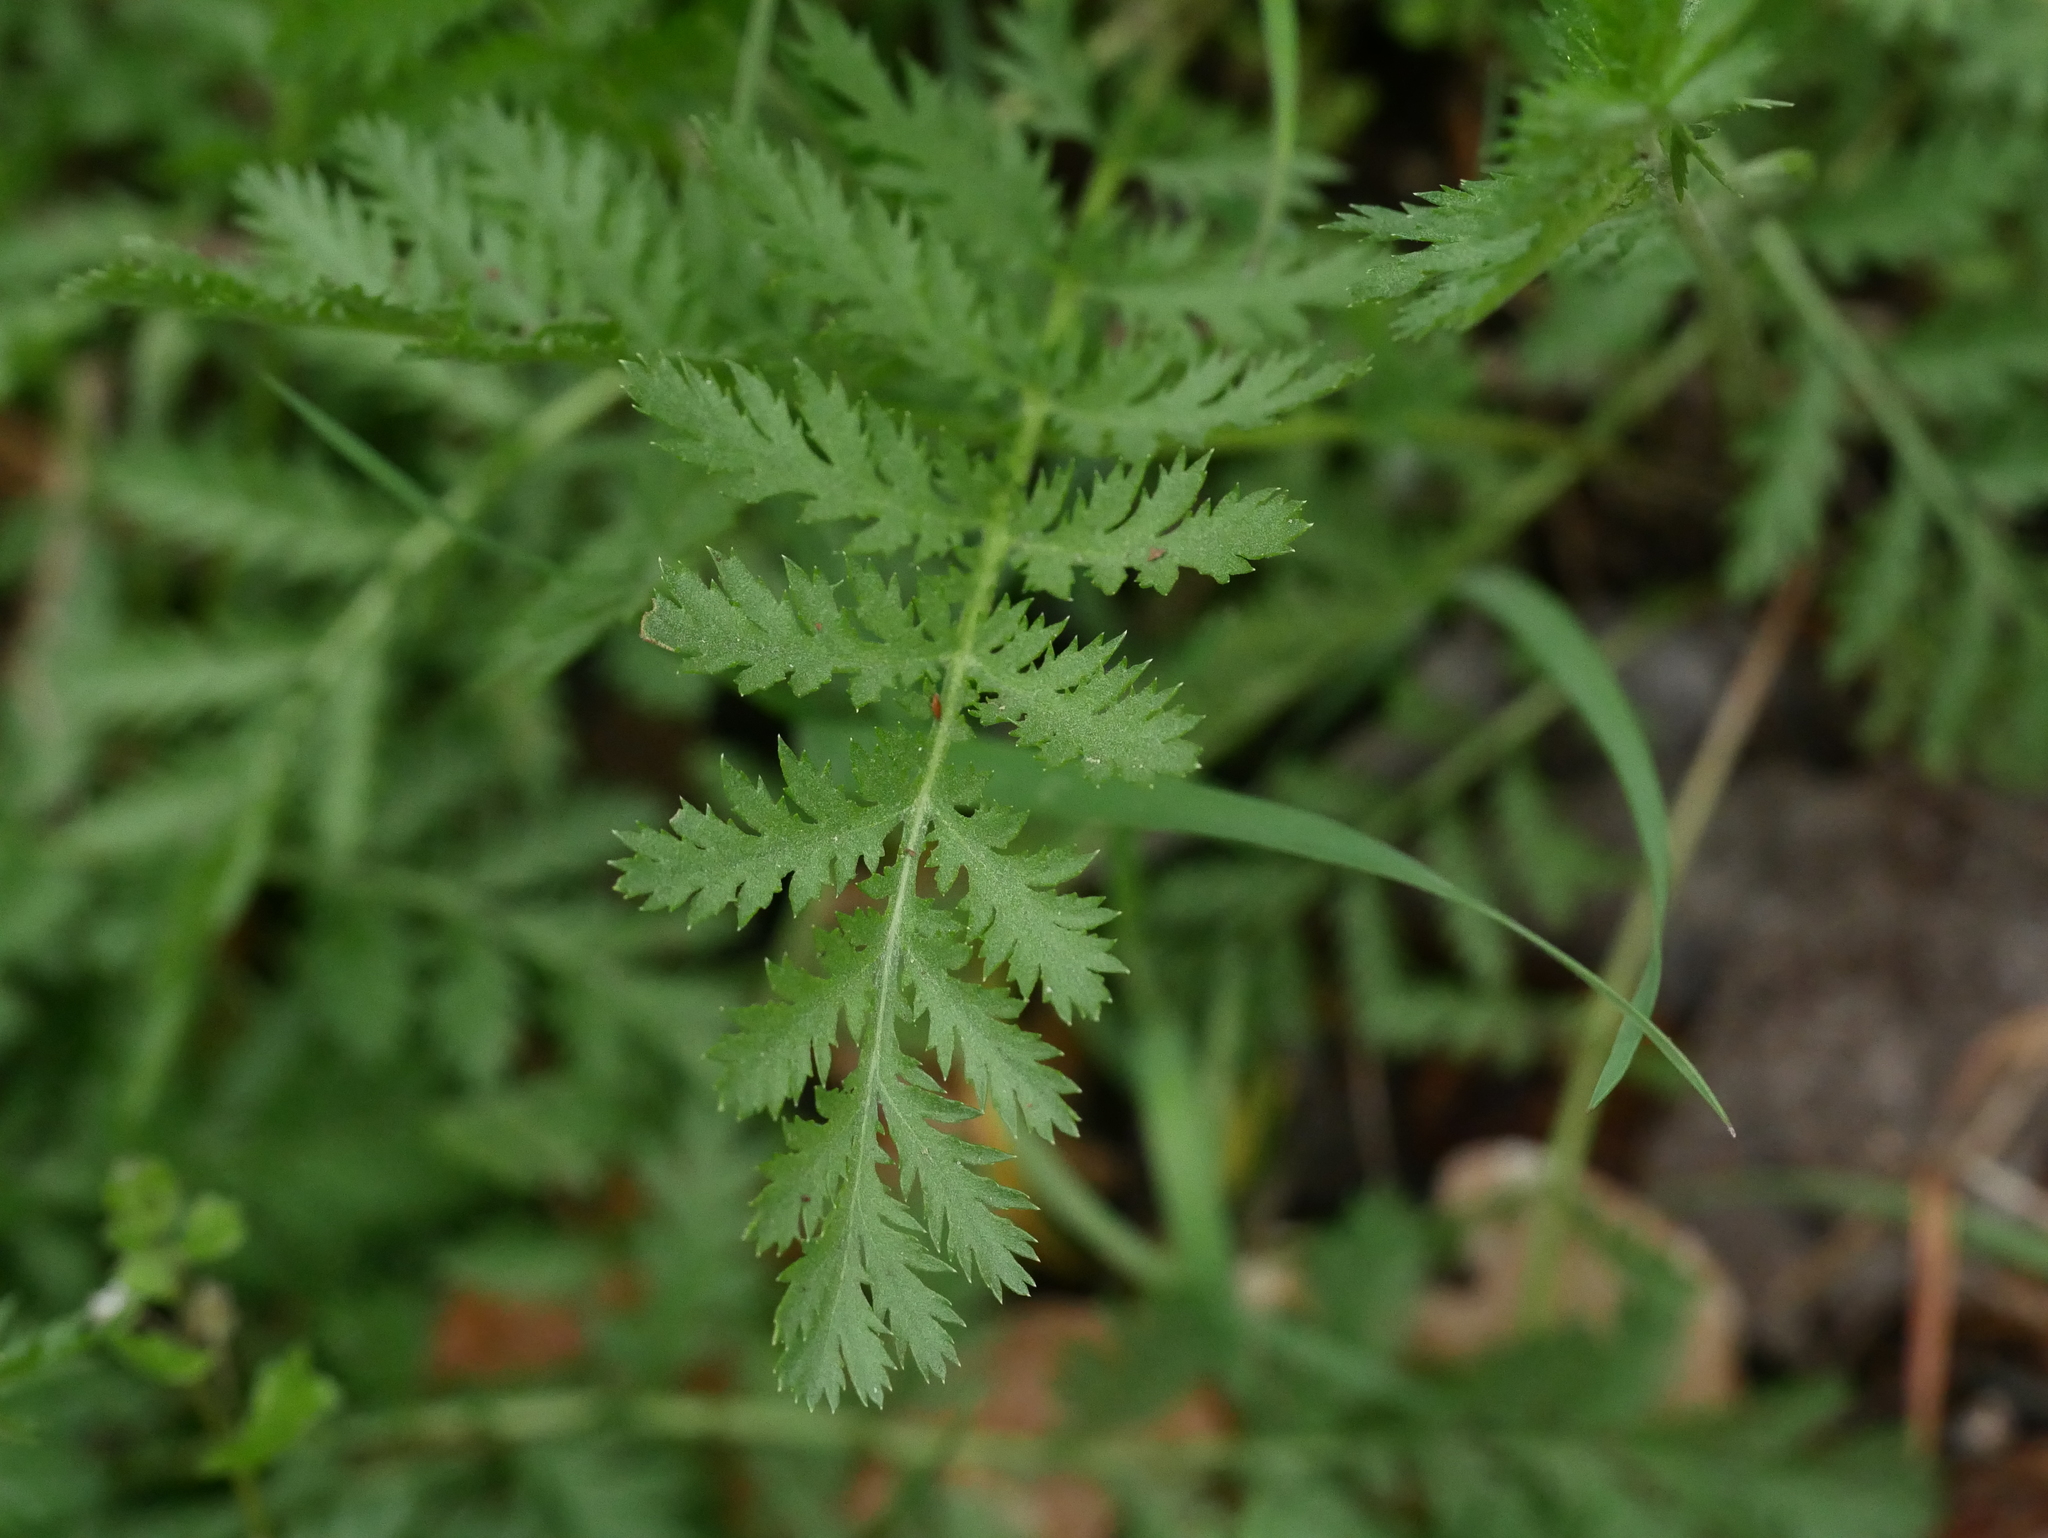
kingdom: Plantae
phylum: Tracheophyta
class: Magnoliopsida
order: Asterales
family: Asteraceae
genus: Tanacetum
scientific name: Tanacetum vulgare
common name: Common tansy
